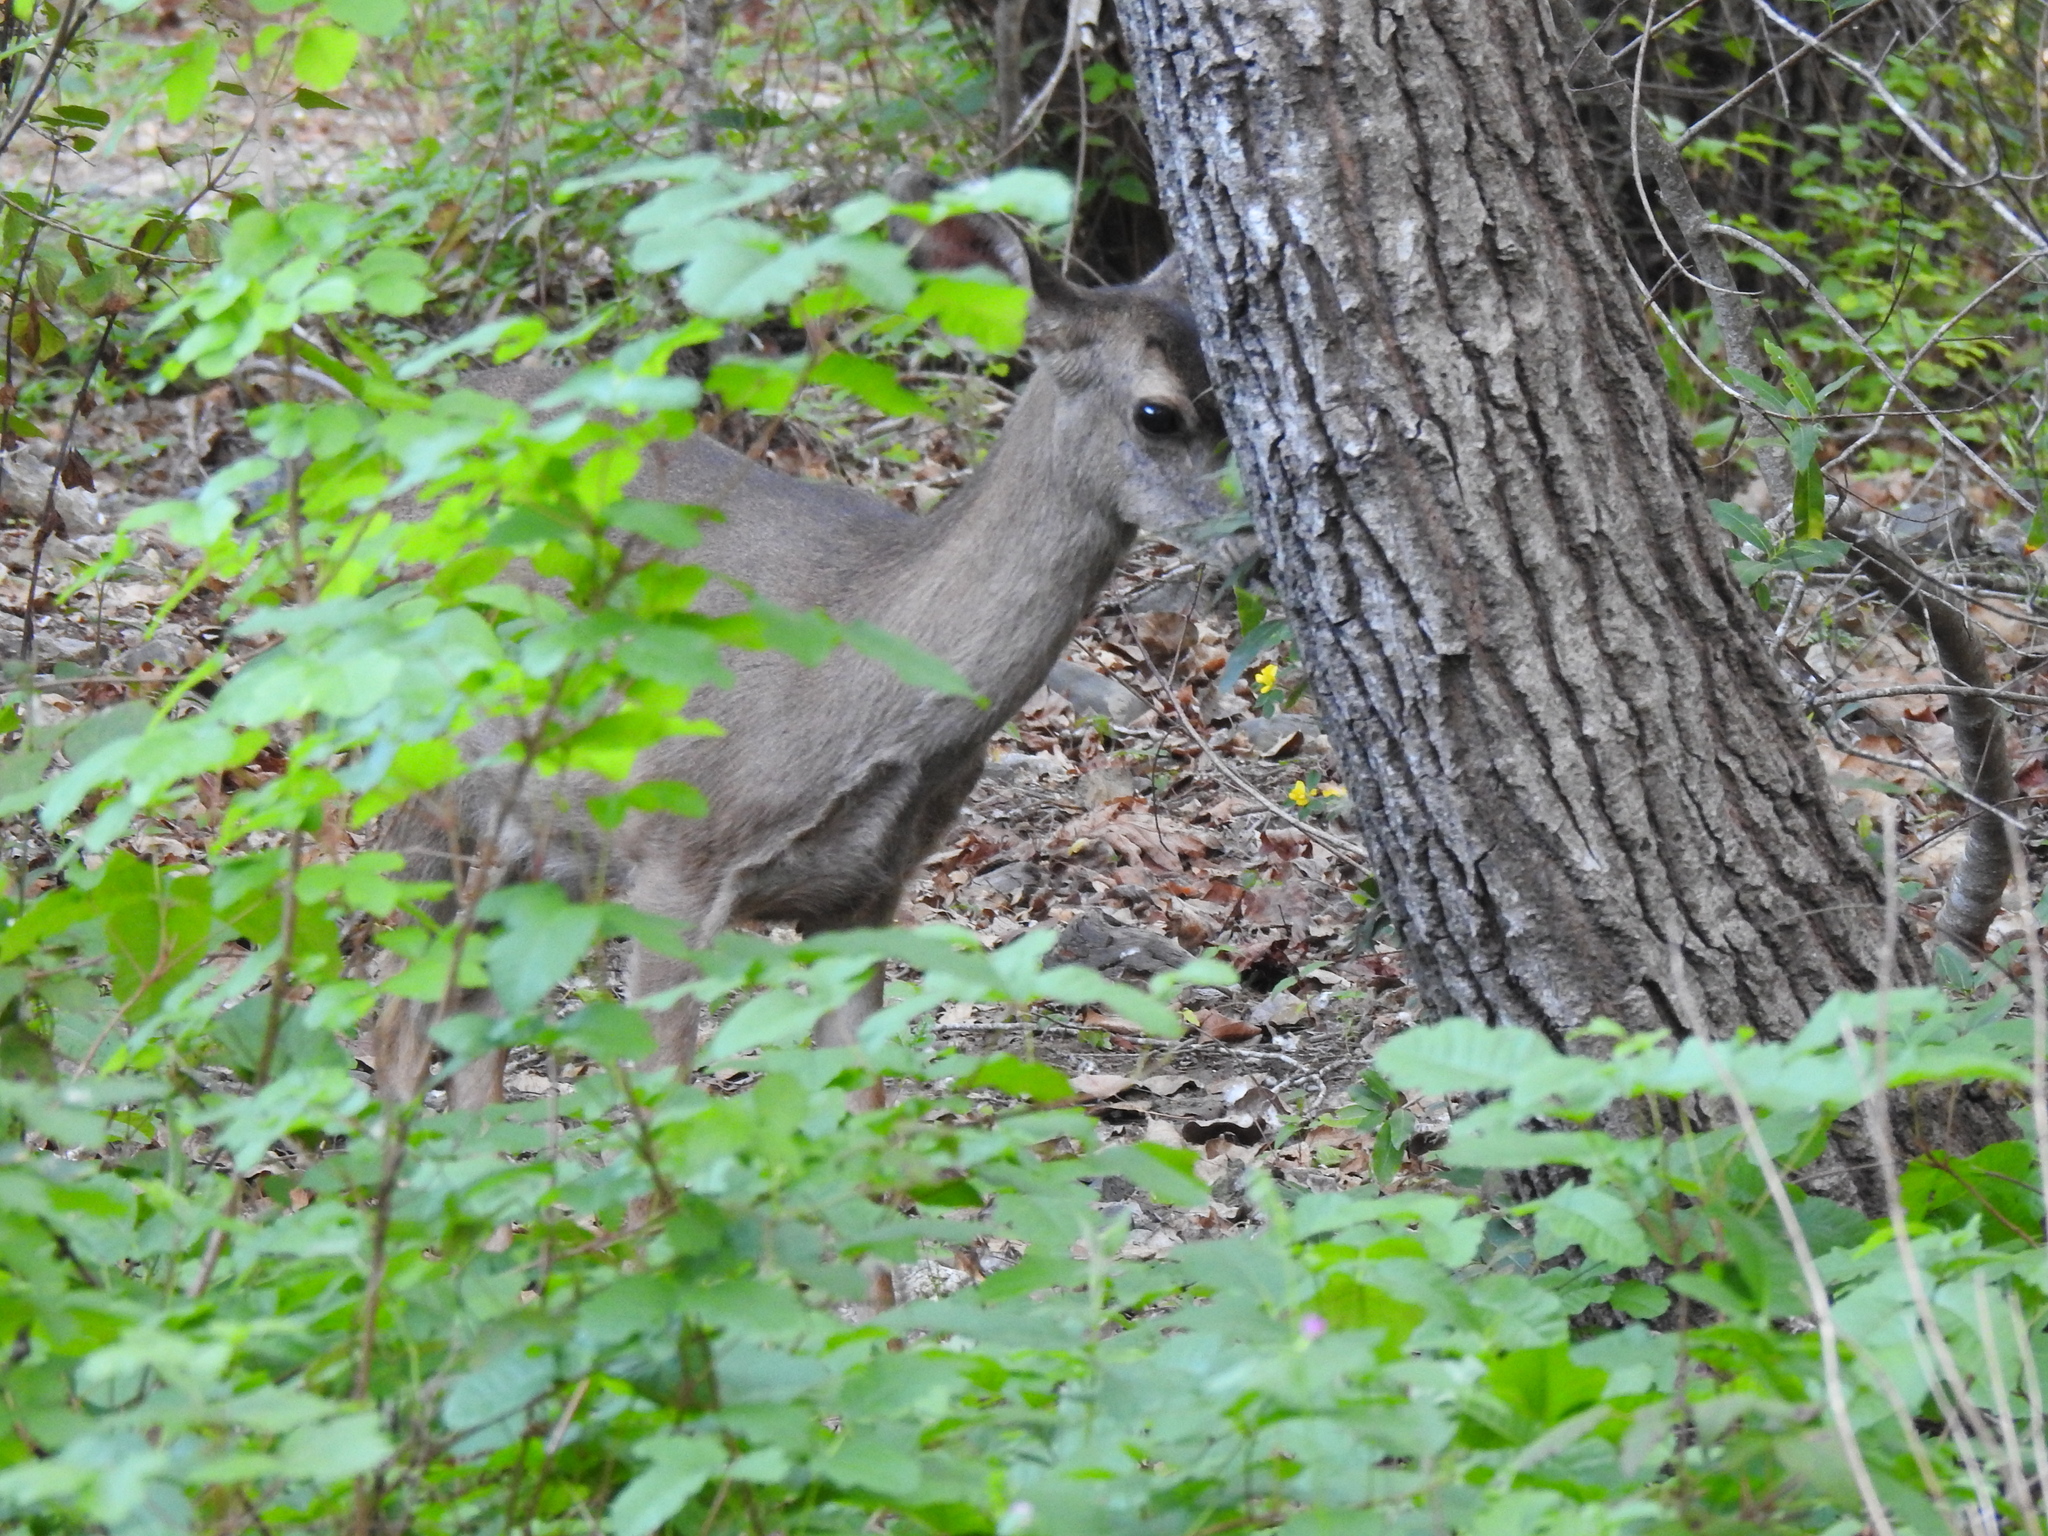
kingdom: Animalia
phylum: Chordata
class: Mammalia
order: Artiodactyla
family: Cervidae
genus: Odocoileus
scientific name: Odocoileus hemionus
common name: Mule deer
